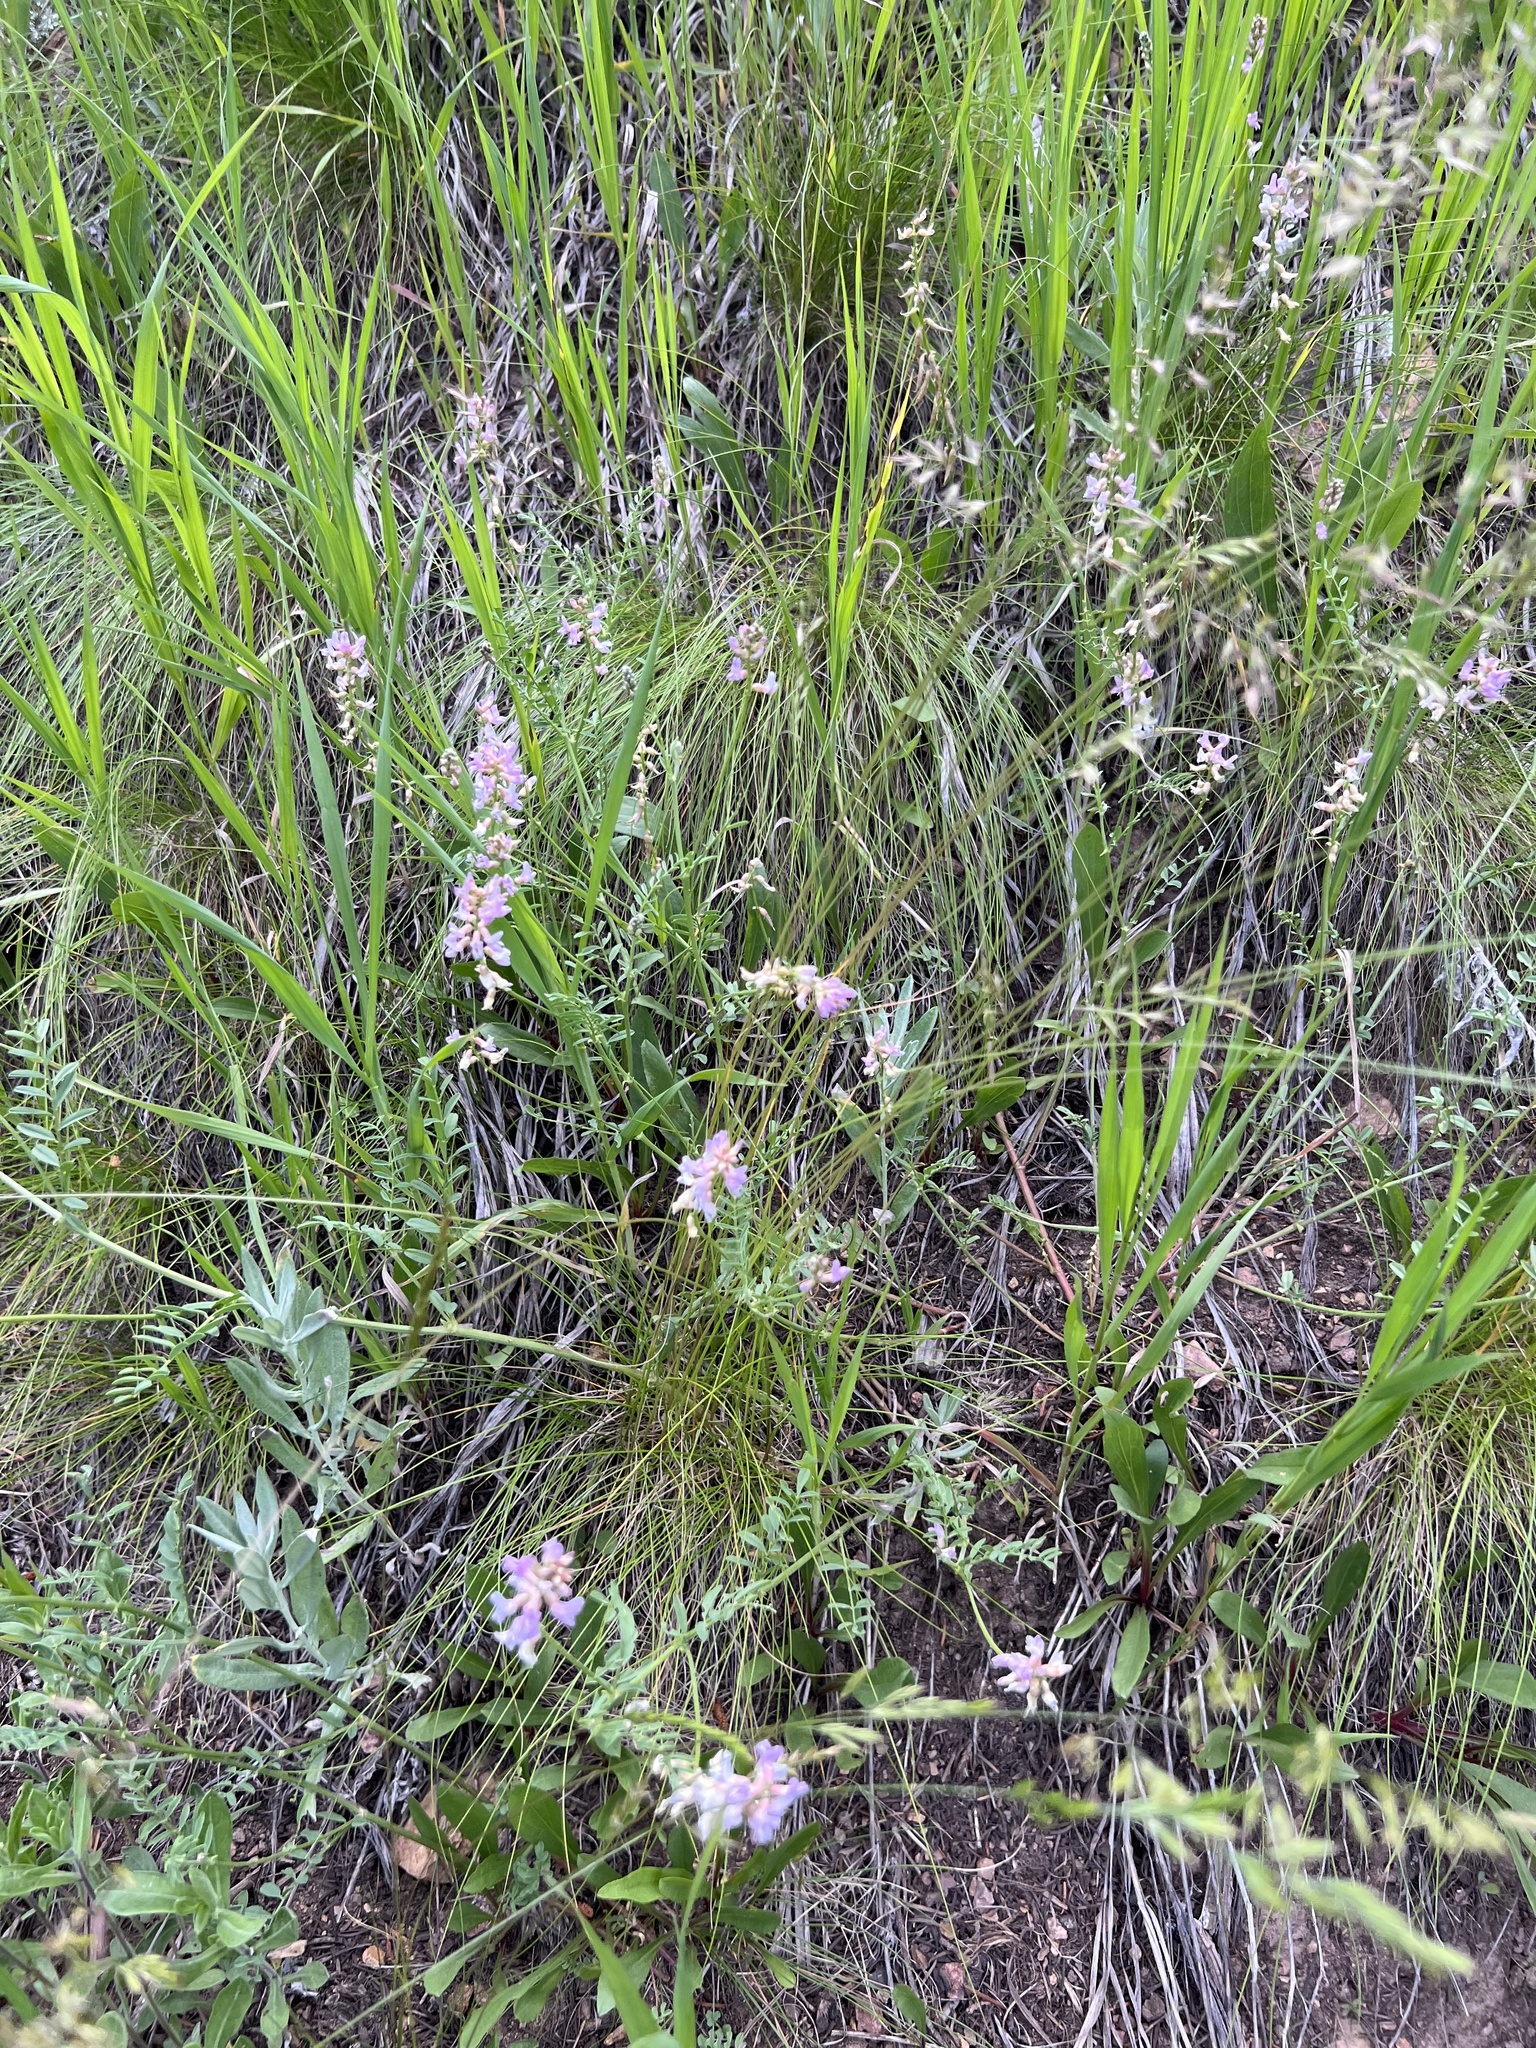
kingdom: Plantae
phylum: Tracheophyta
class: Magnoliopsida
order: Fabales
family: Fabaceae
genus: Astragalus
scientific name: Astragalus flexuosus
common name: Pliant milk-vetch
